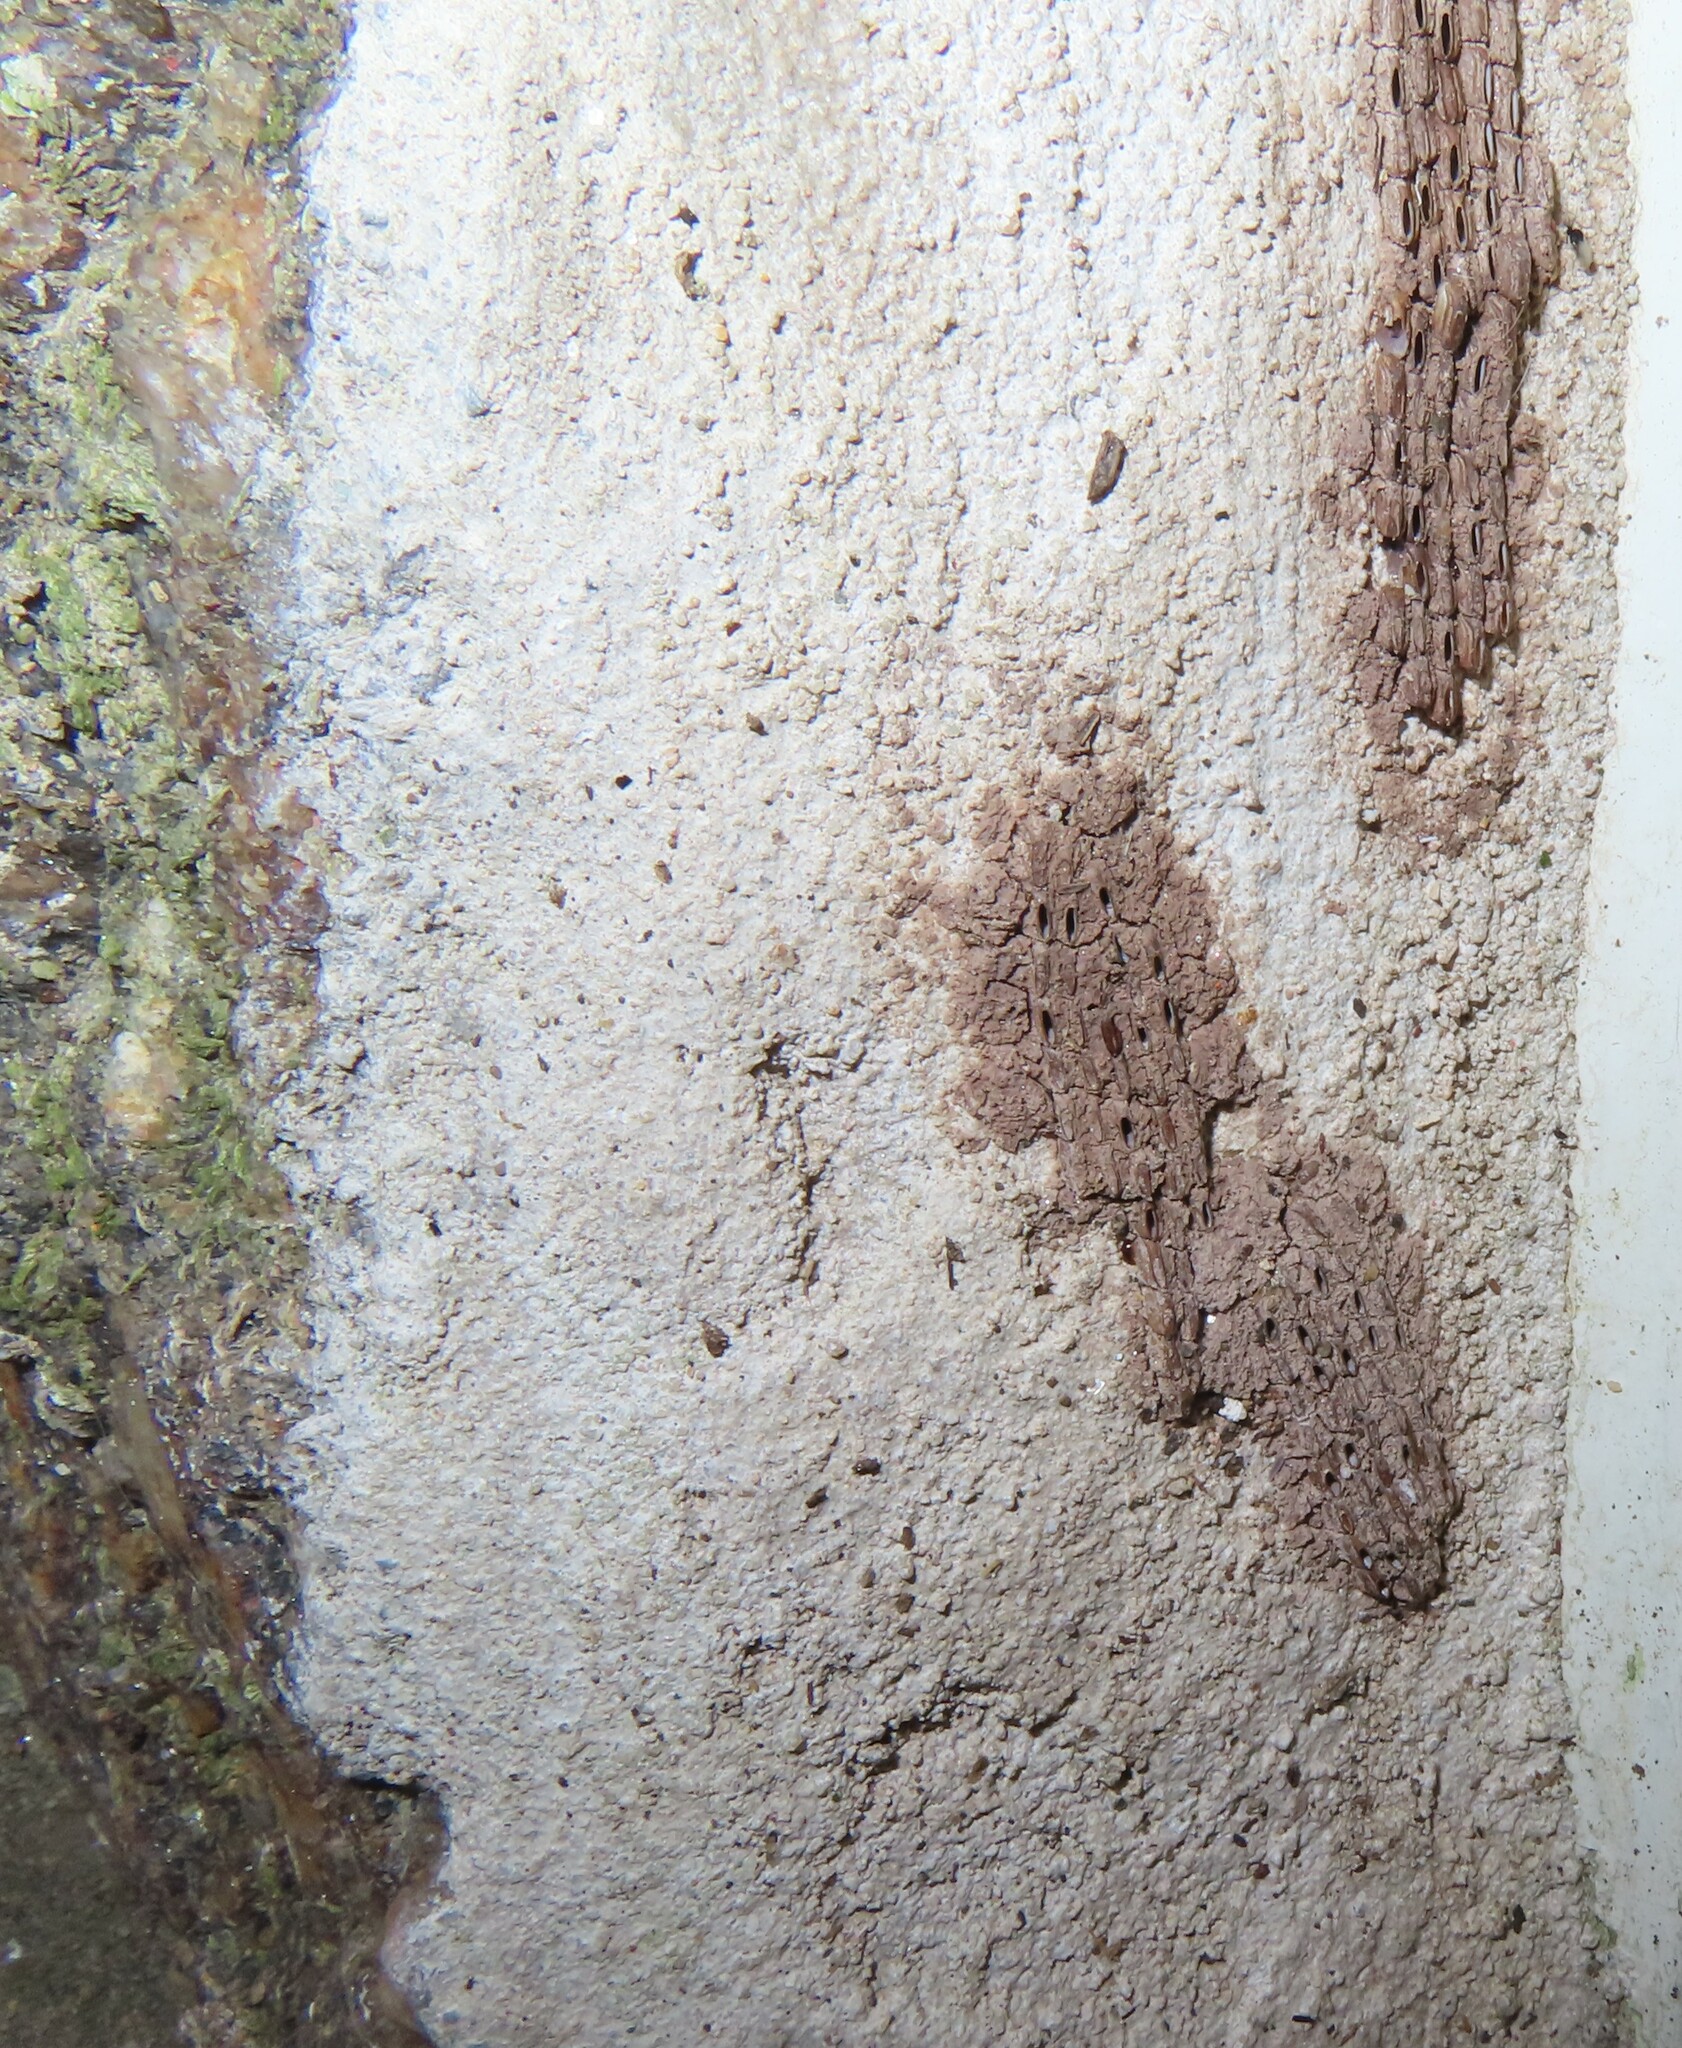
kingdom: Animalia
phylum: Arthropoda
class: Insecta
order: Hemiptera
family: Fulgoridae
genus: Lycorma
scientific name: Lycorma delicatula
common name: Spotted lanternfly
